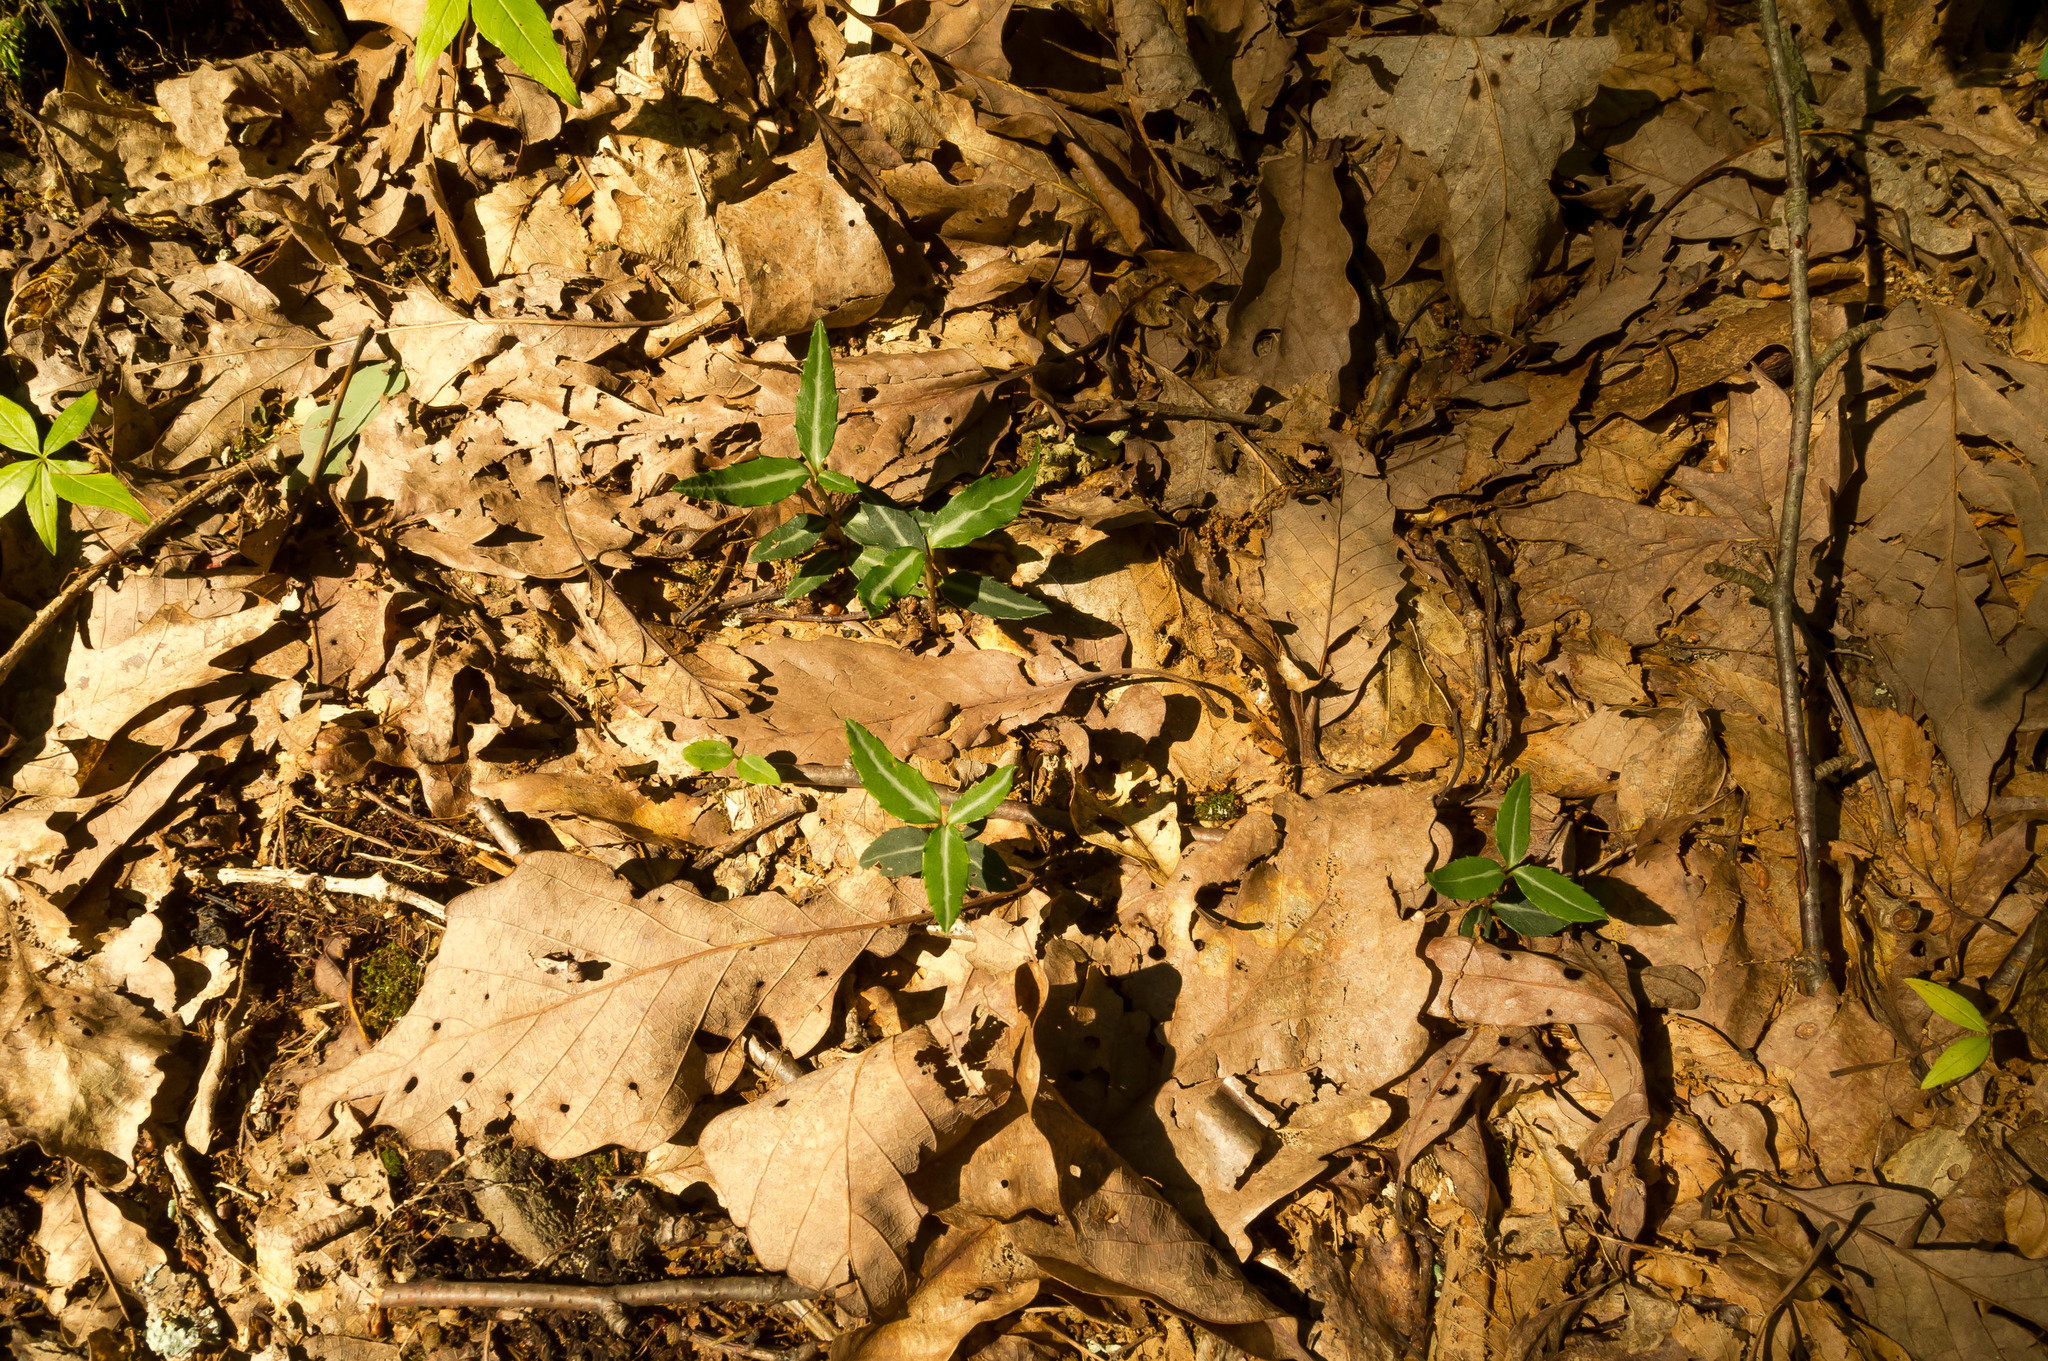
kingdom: Plantae
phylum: Tracheophyta
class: Magnoliopsida
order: Ericales
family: Ericaceae
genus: Chimaphila
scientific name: Chimaphila maculata
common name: Spotted pipsissewa
